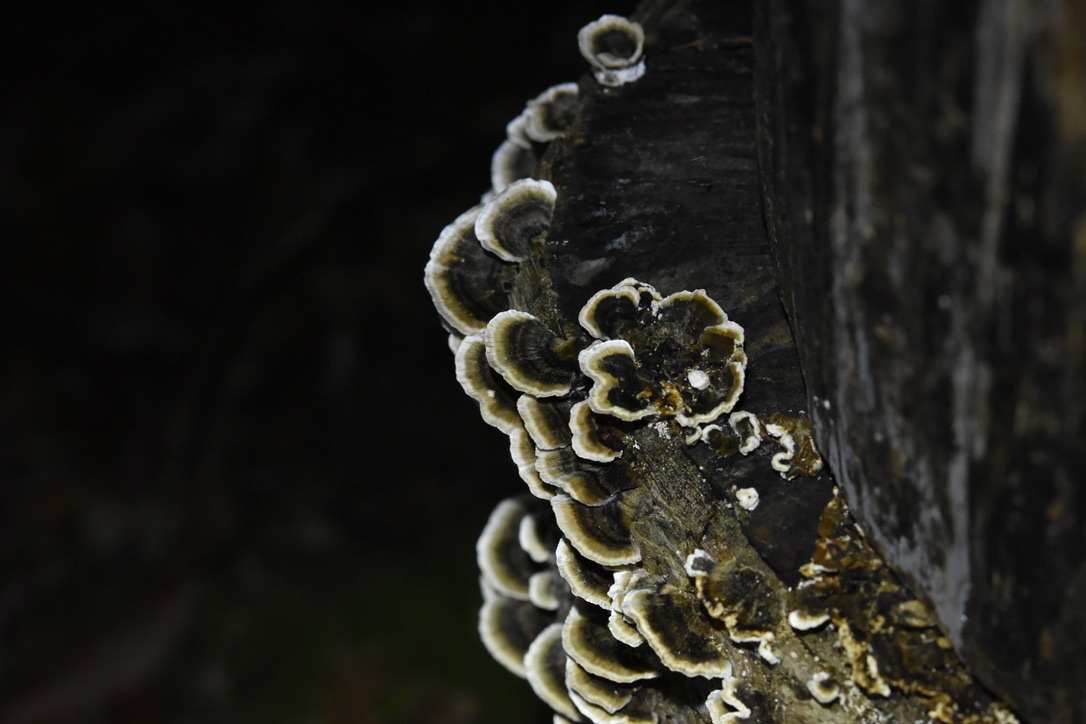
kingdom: Fungi
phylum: Basidiomycota
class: Agaricomycetes
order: Polyporales
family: Polyporaceae
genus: Trametes
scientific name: Trametes versicolor
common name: Turkeytail
